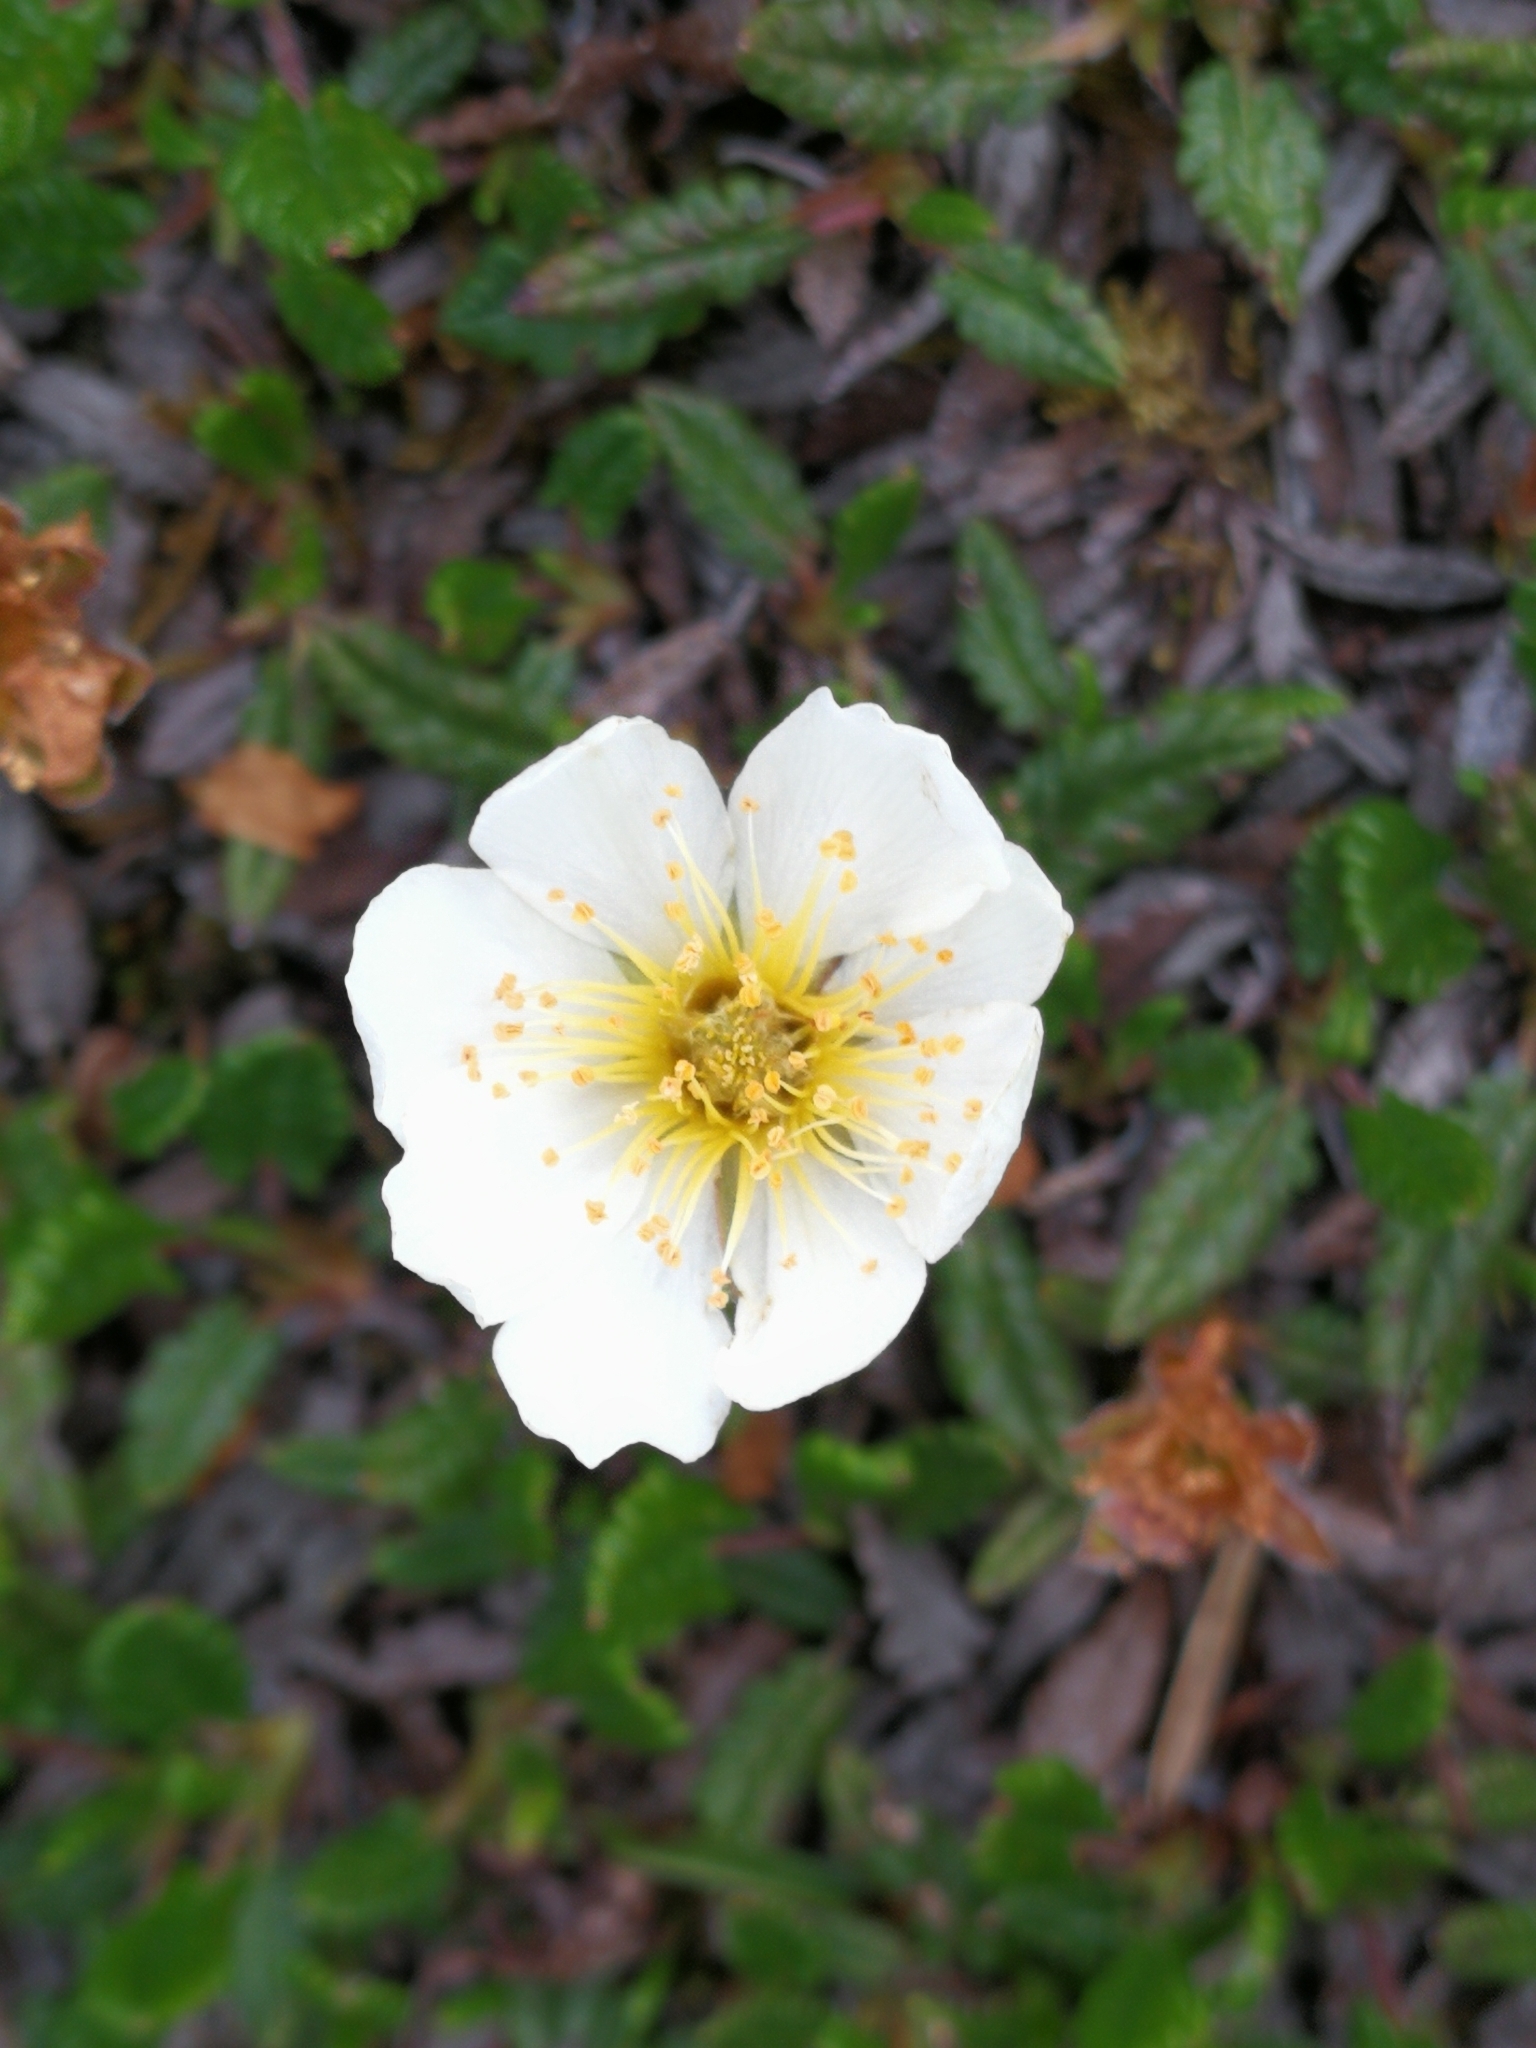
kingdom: Plantae
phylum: Tracheophyta
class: Magnoliopsida
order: Rosales
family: Rosaceae
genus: Dryas
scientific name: Dryas octopetala
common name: Eight-petal mountain-avens
